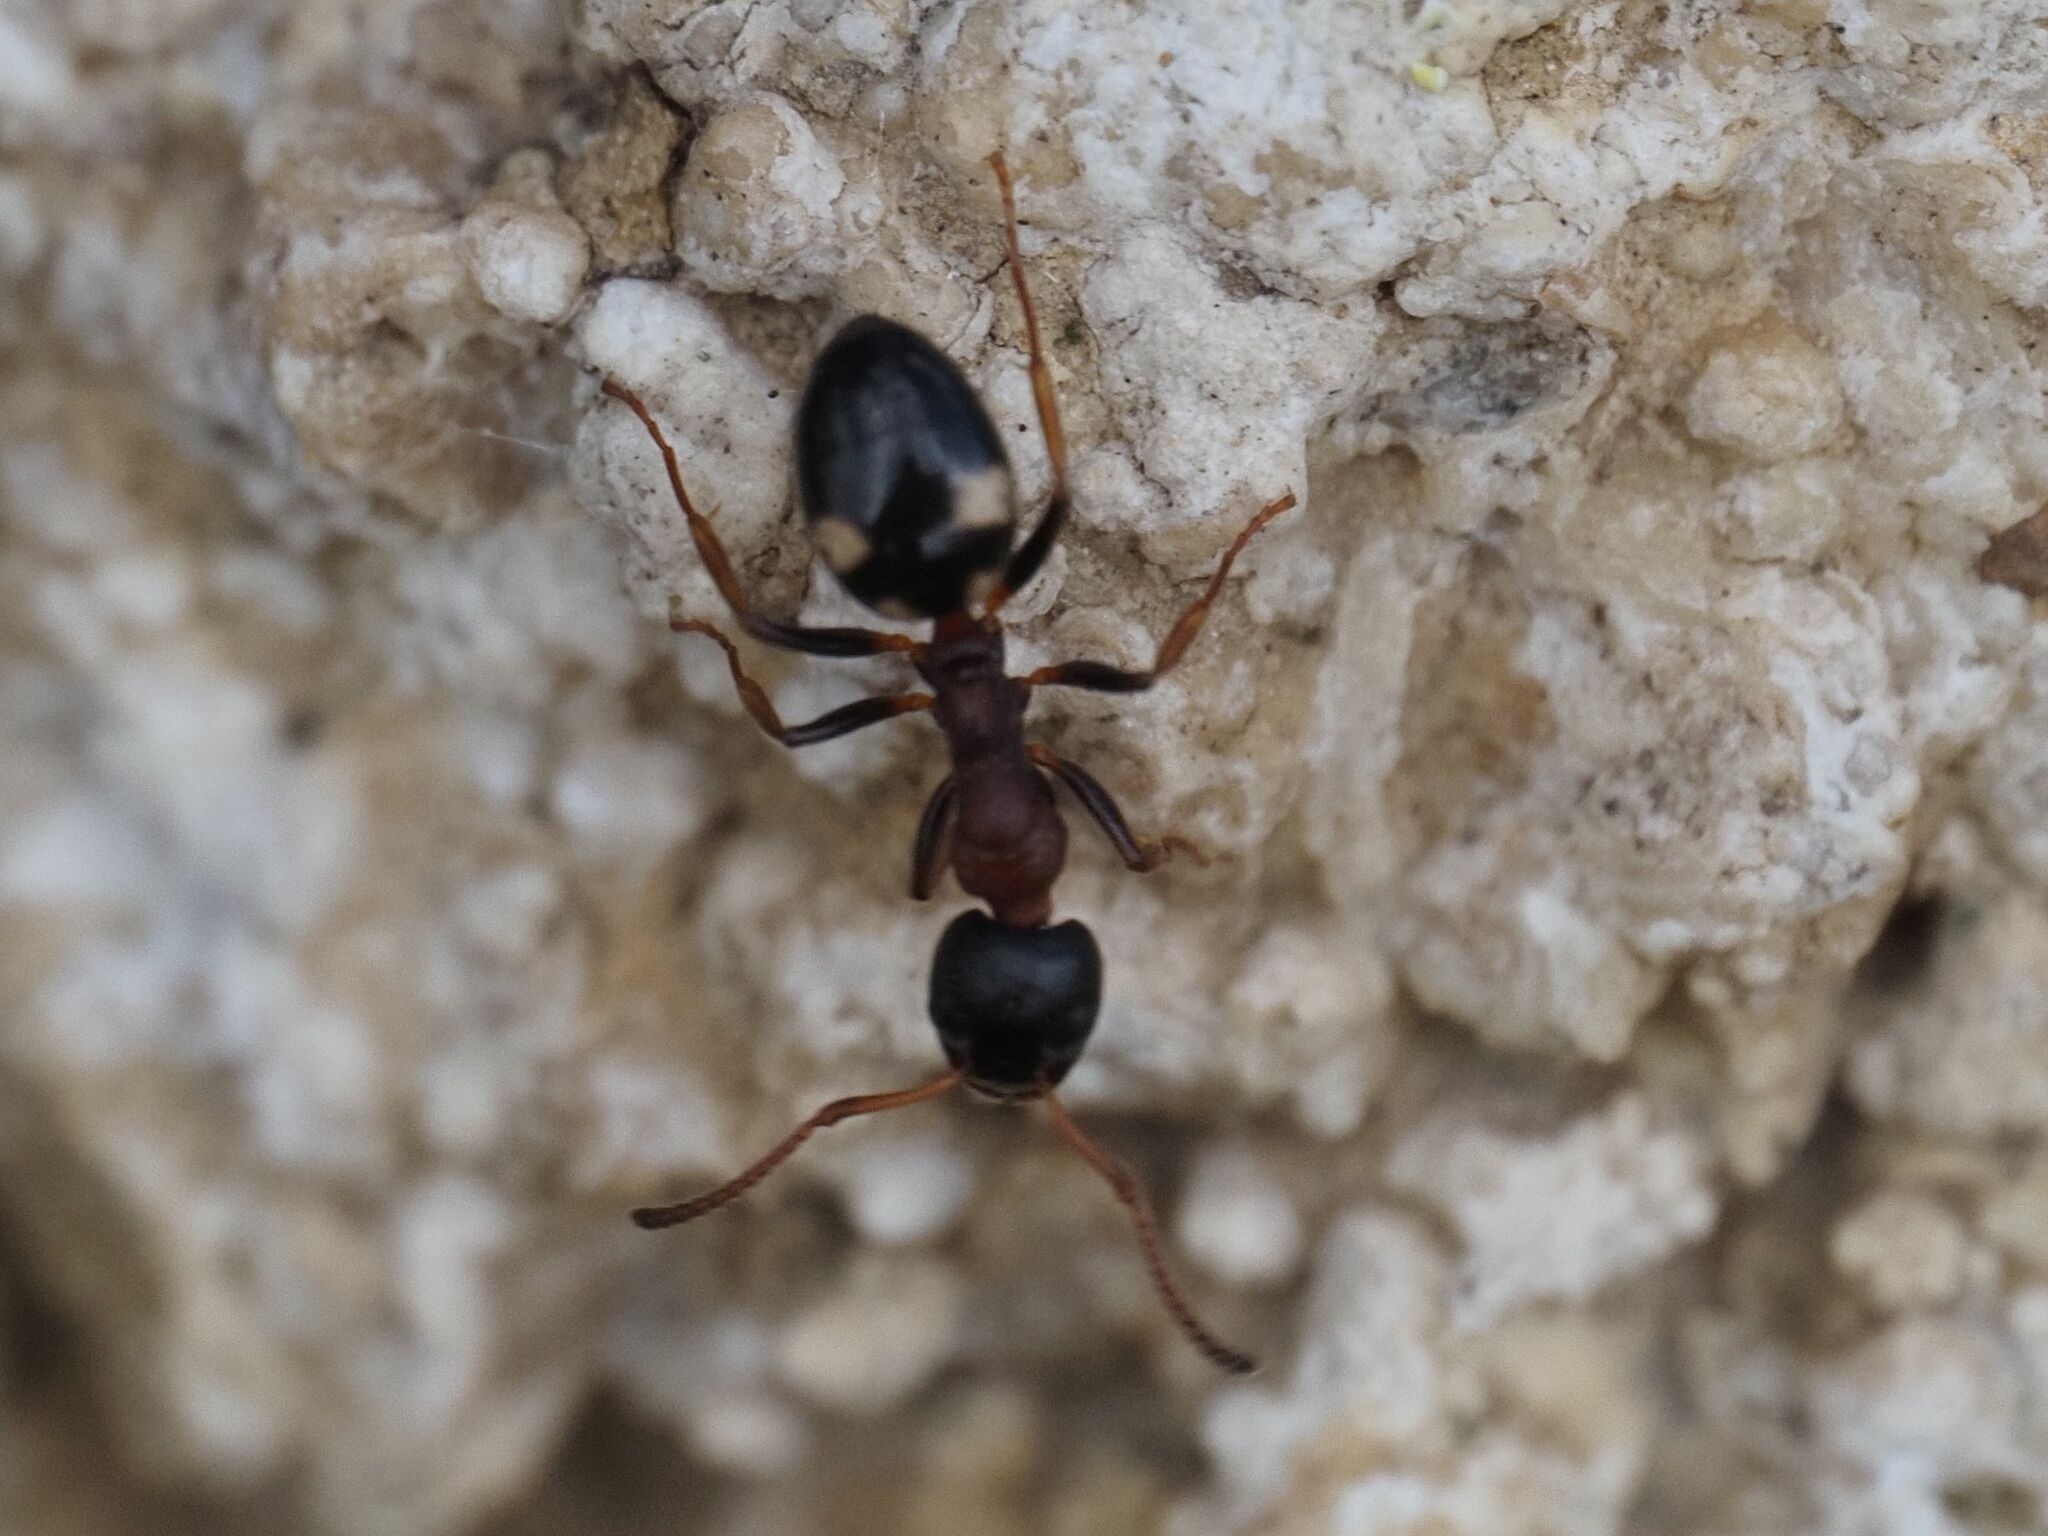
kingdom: Animalia
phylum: Arthropoda
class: Insecta
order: Hymenoptera
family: Formicidae
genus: Dolichoderus
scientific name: Dolichoderus quadripunctatus
